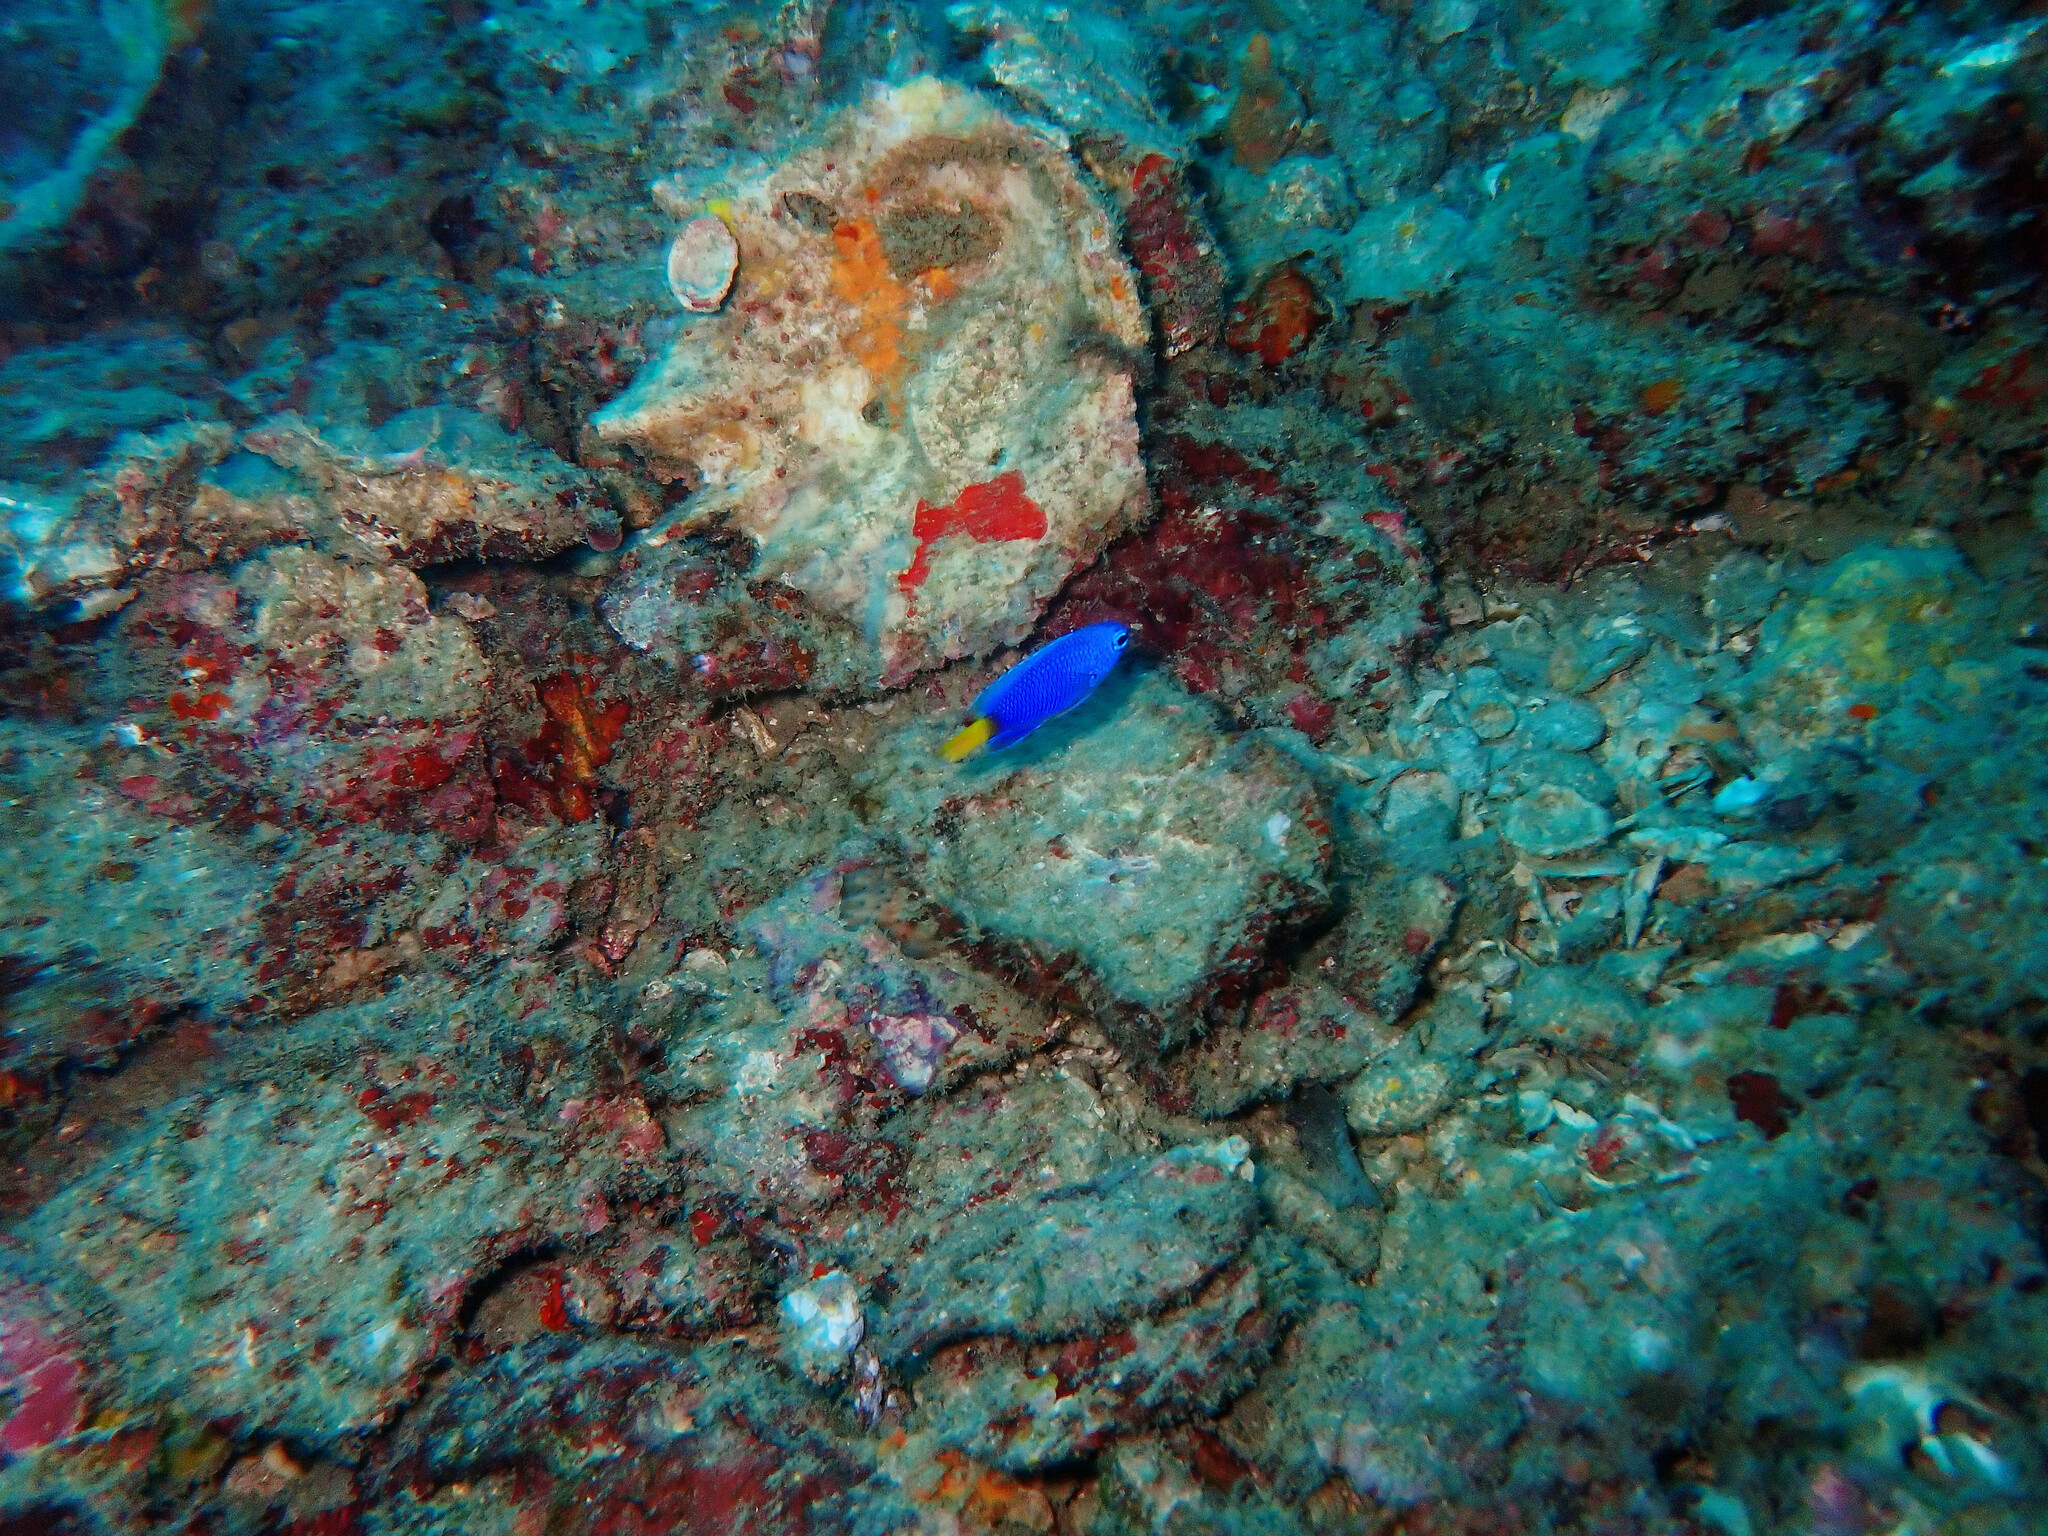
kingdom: Animalia
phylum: Chordata
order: Perciformes
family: Pomacentridae
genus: Pomacentrus
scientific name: Pomacentrus similis
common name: Similar damsel
